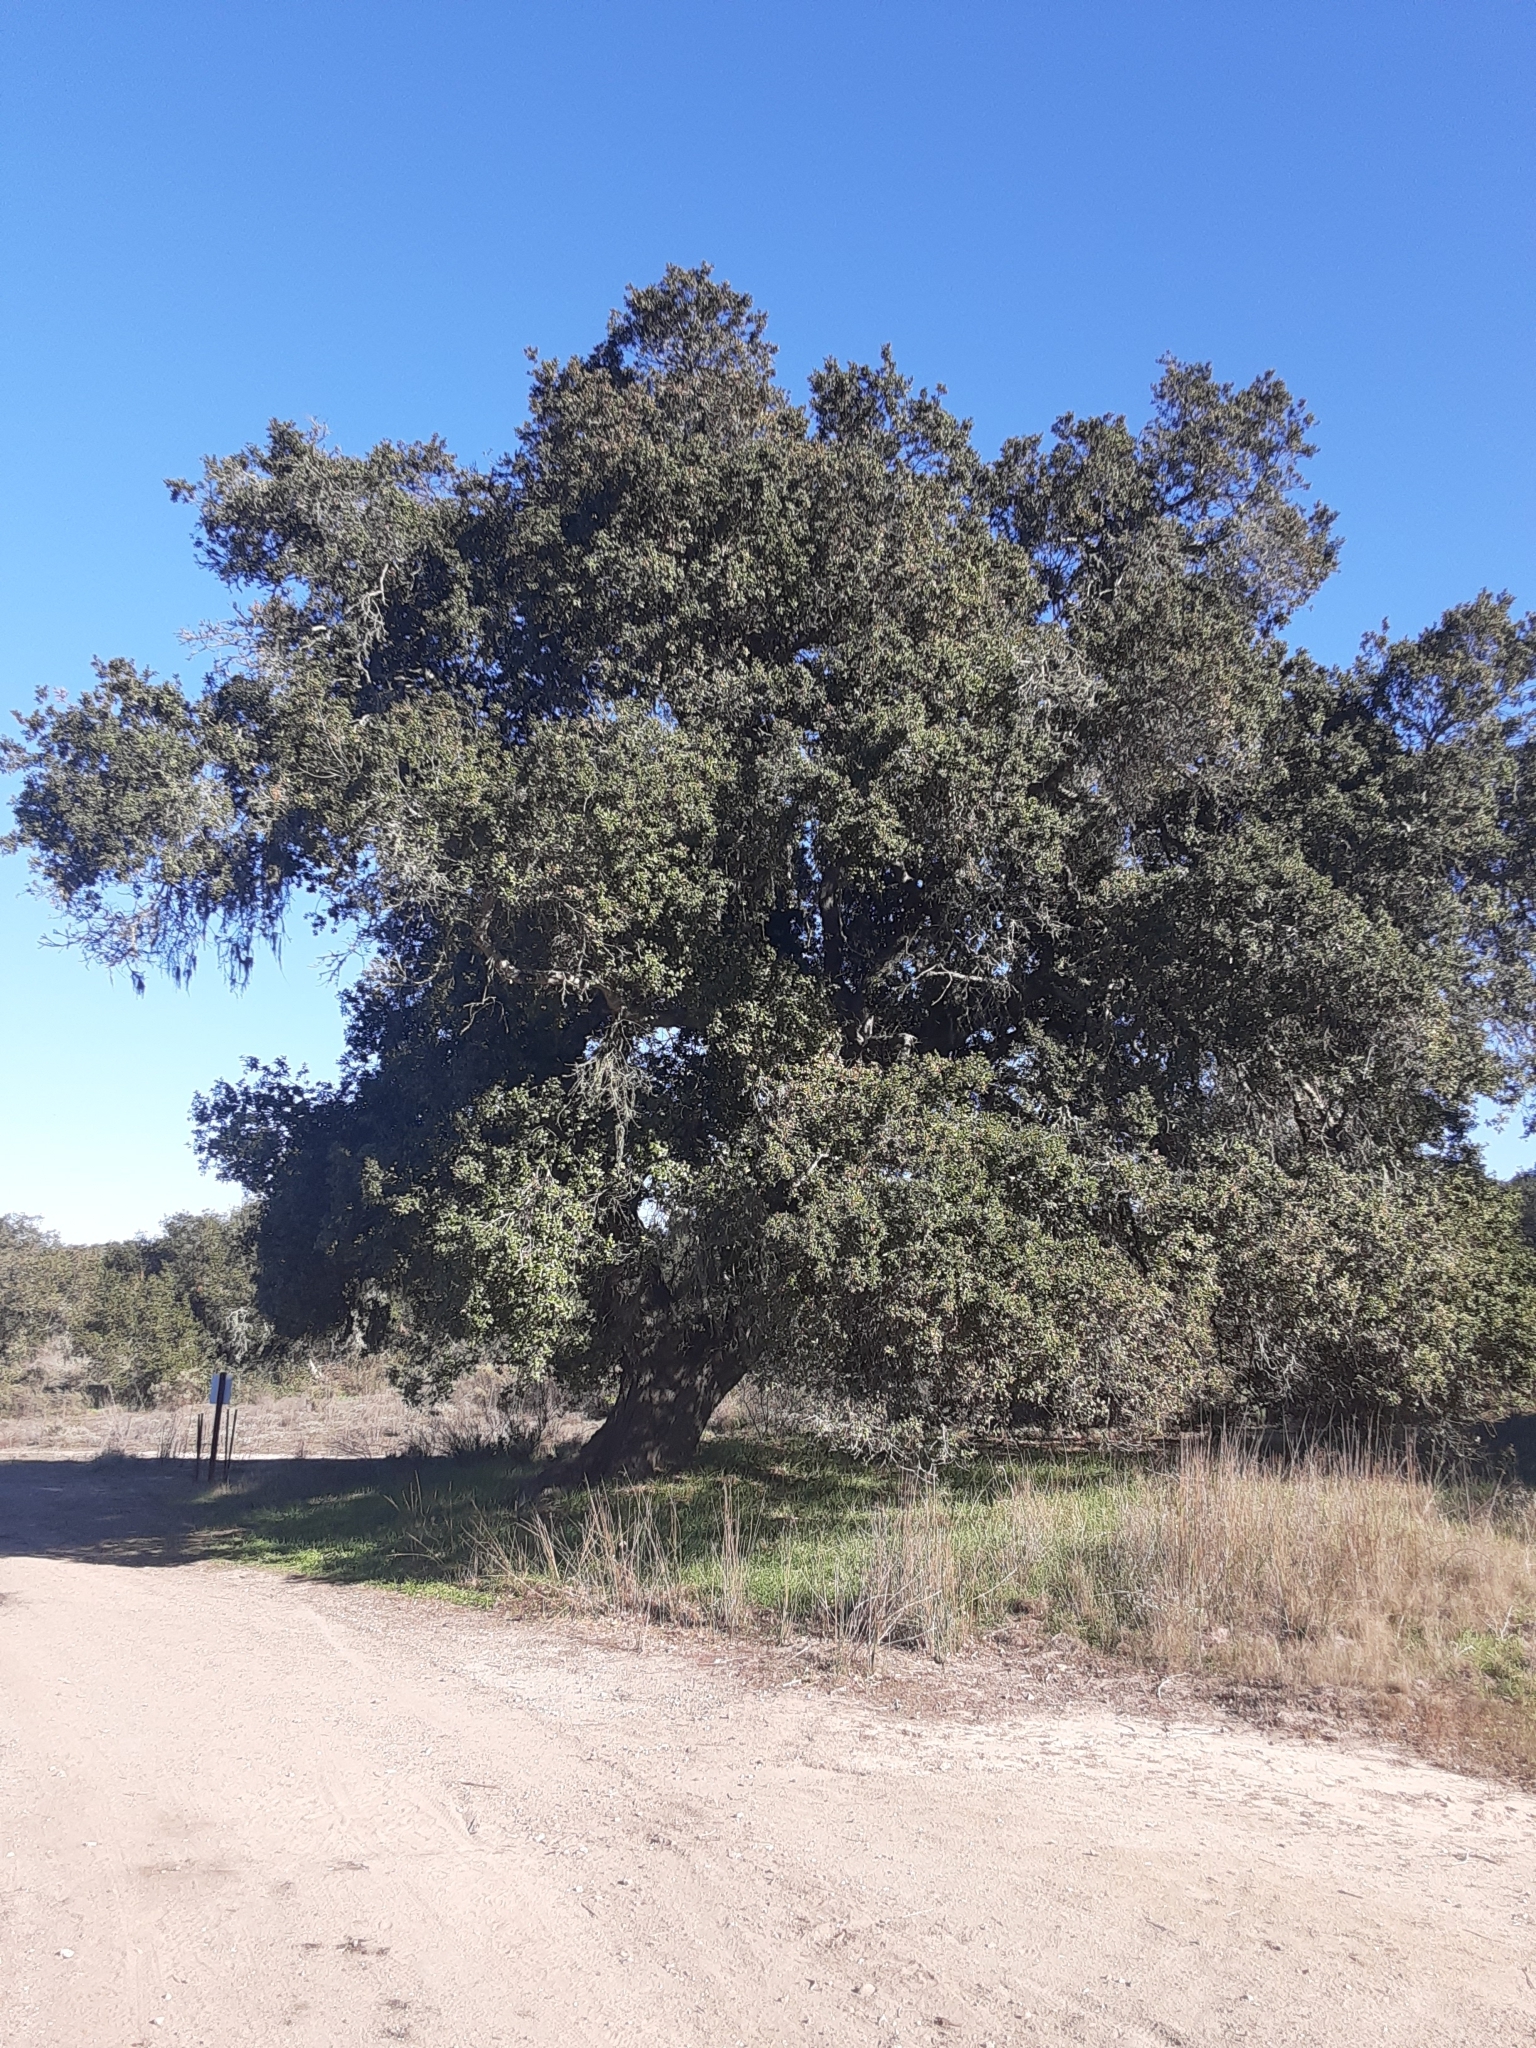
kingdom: Plantae
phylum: Tracheophyta
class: Magnoliopsida
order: Fagales
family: Fagaceae
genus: Quercus
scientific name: Quercus agrifolia
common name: California live oak
